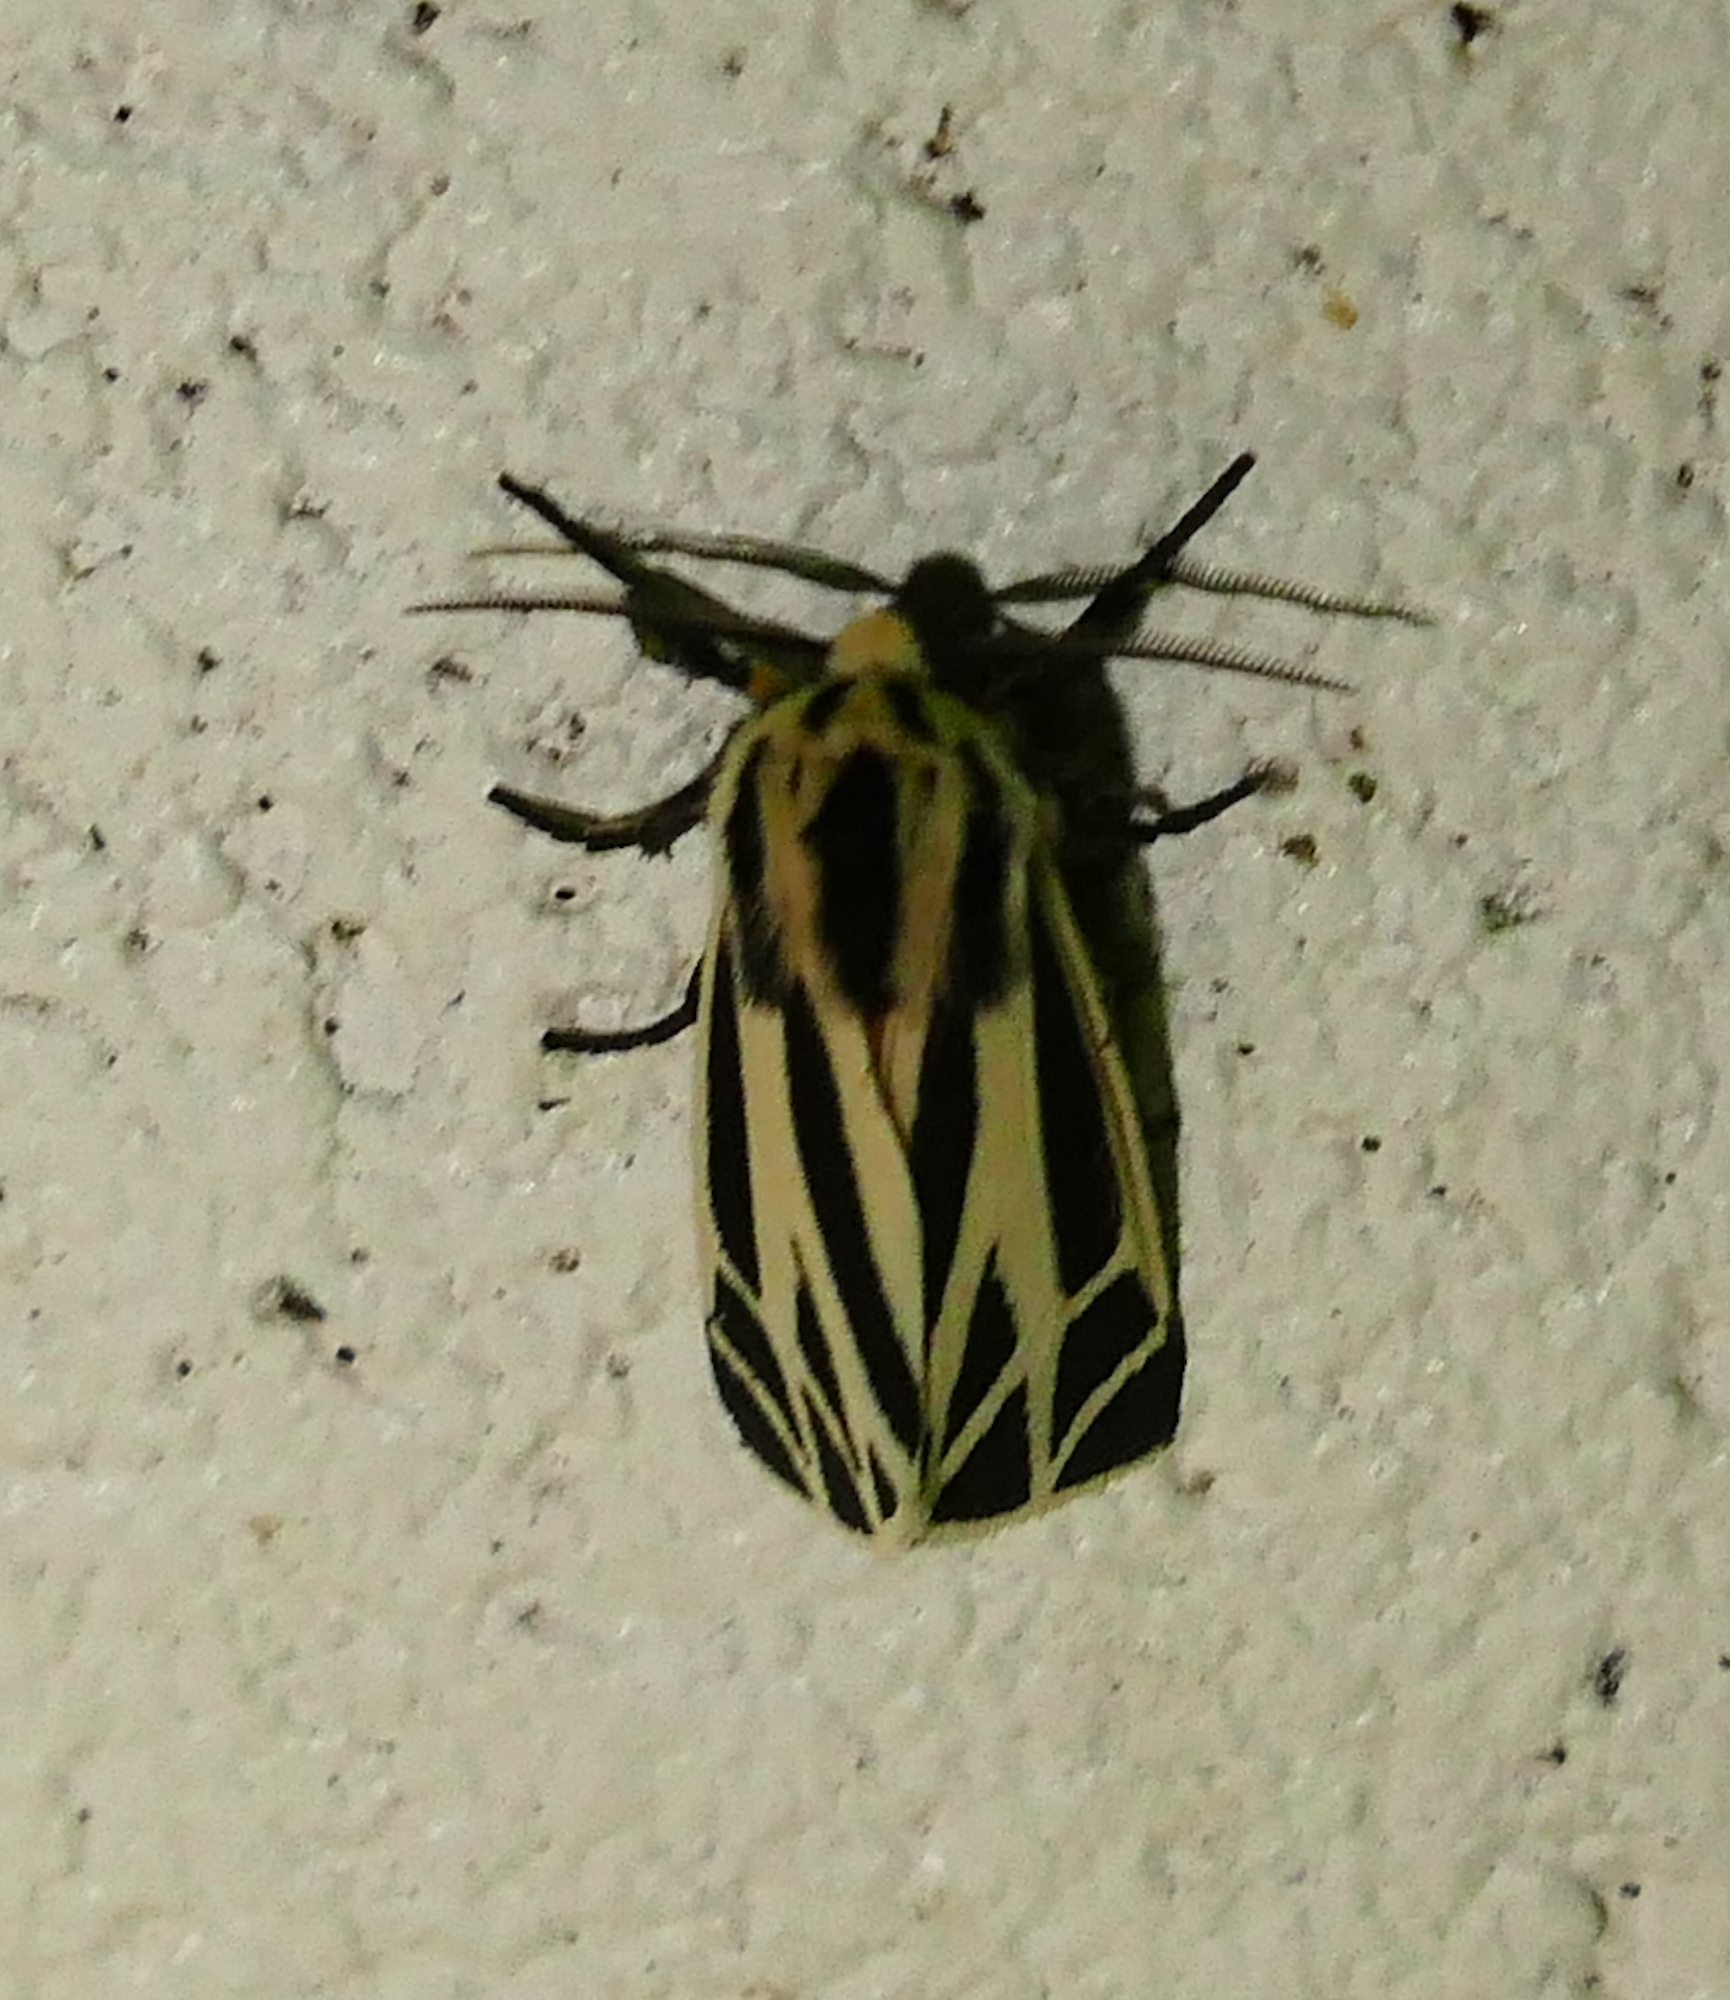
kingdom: Animalia
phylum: Arthropoda
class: Insecta
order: Lepidoptera
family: Erebidae
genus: Apantesis
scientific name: Apantesis phalerata
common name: Harnessed tiger moth
